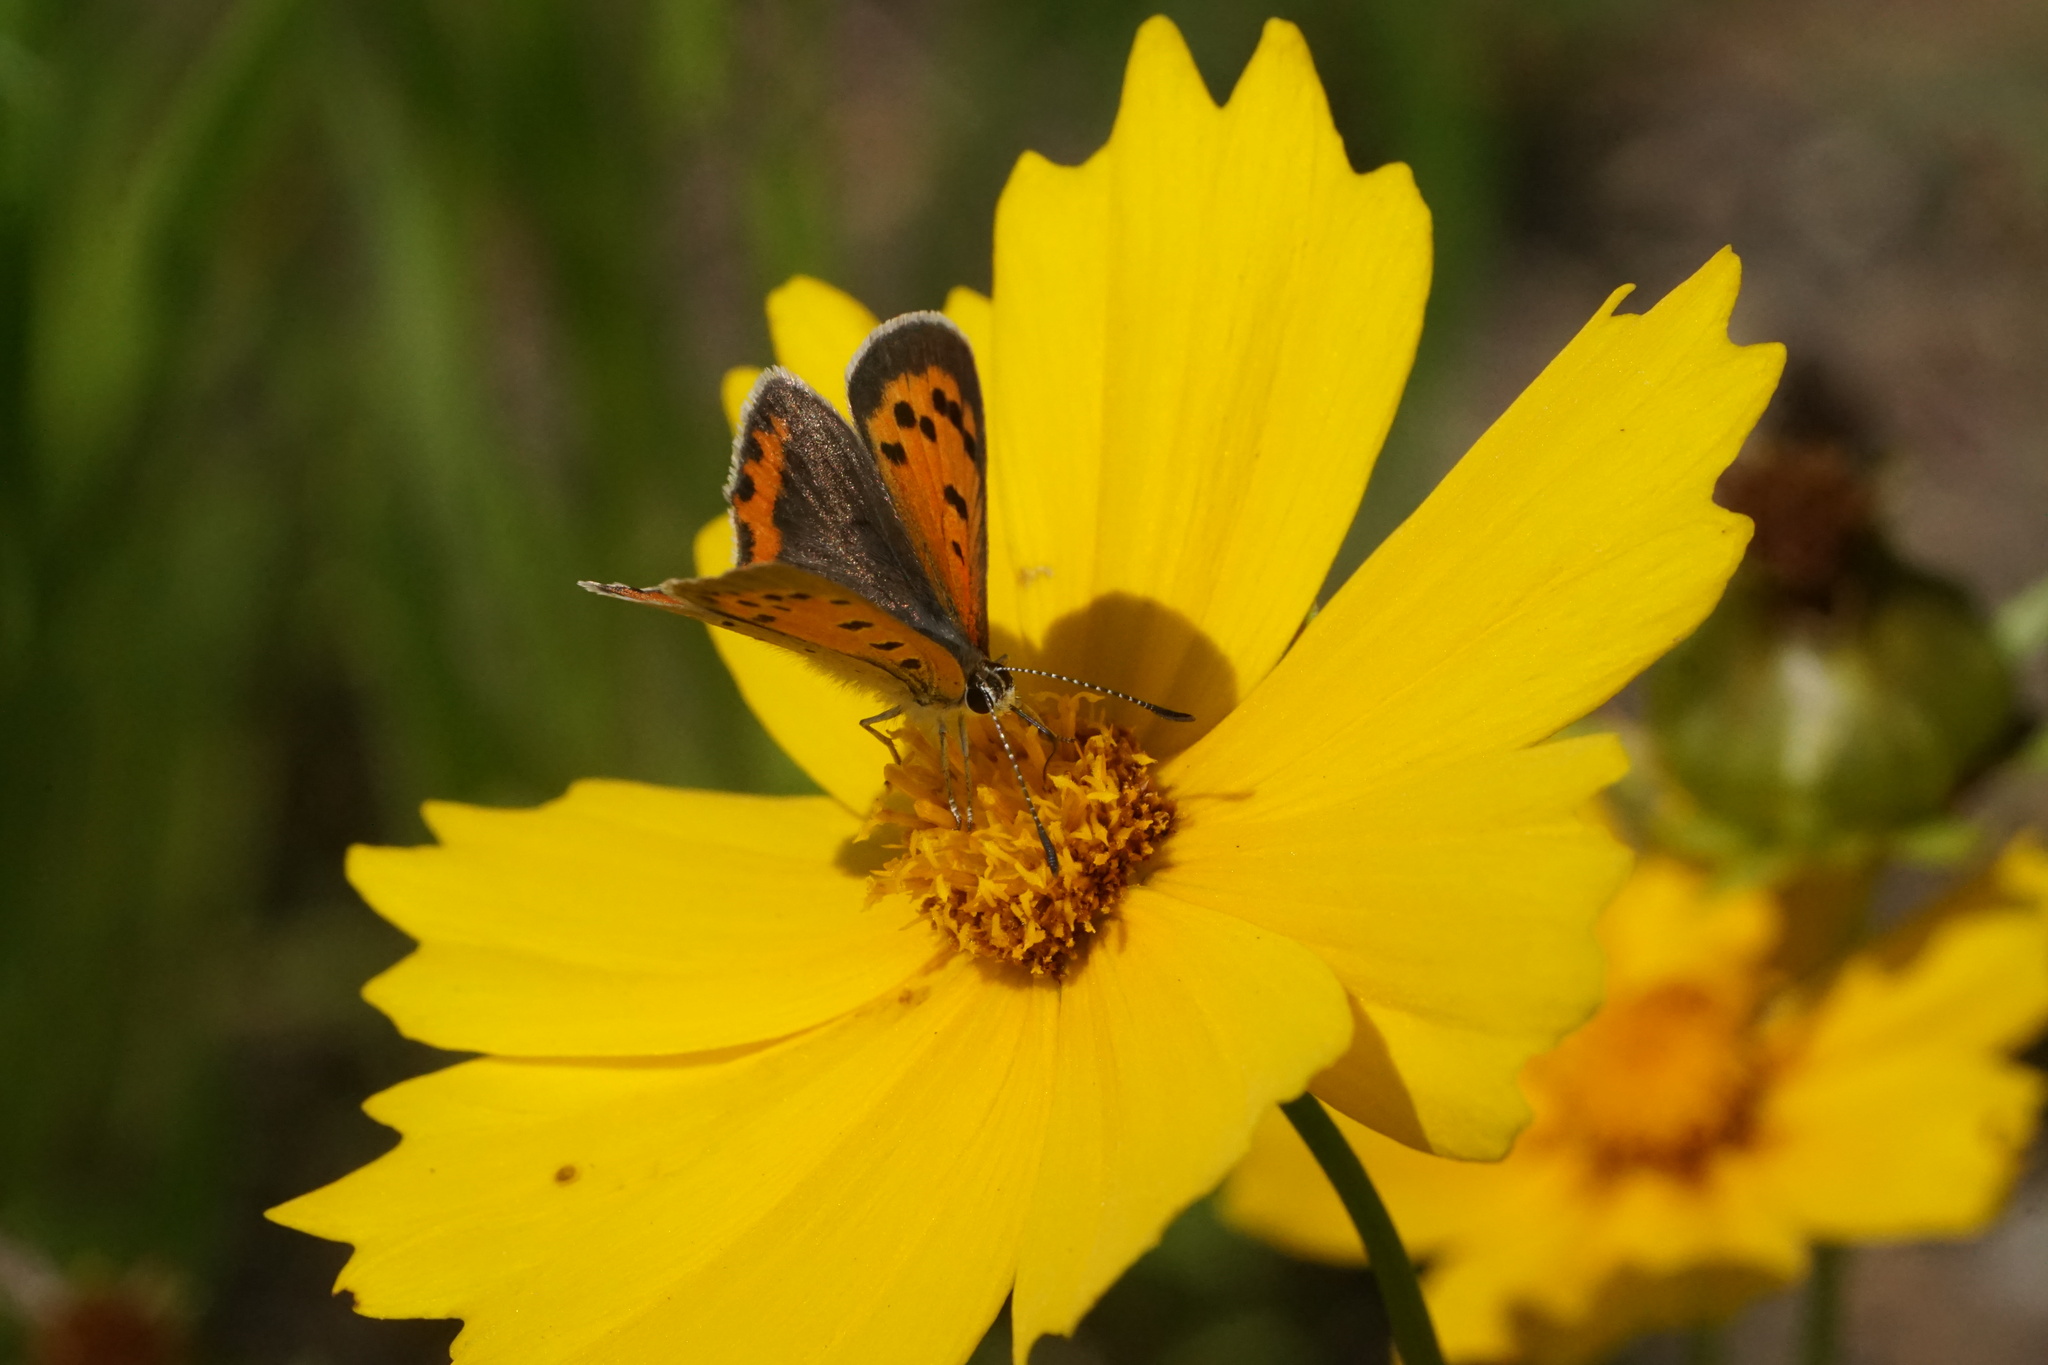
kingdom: Animalia
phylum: Arthropoda
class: Insecta
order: Lepidoptera
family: Lycaenidae
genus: Lycaena
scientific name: Lycaena hypophlaeas
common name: American copper
